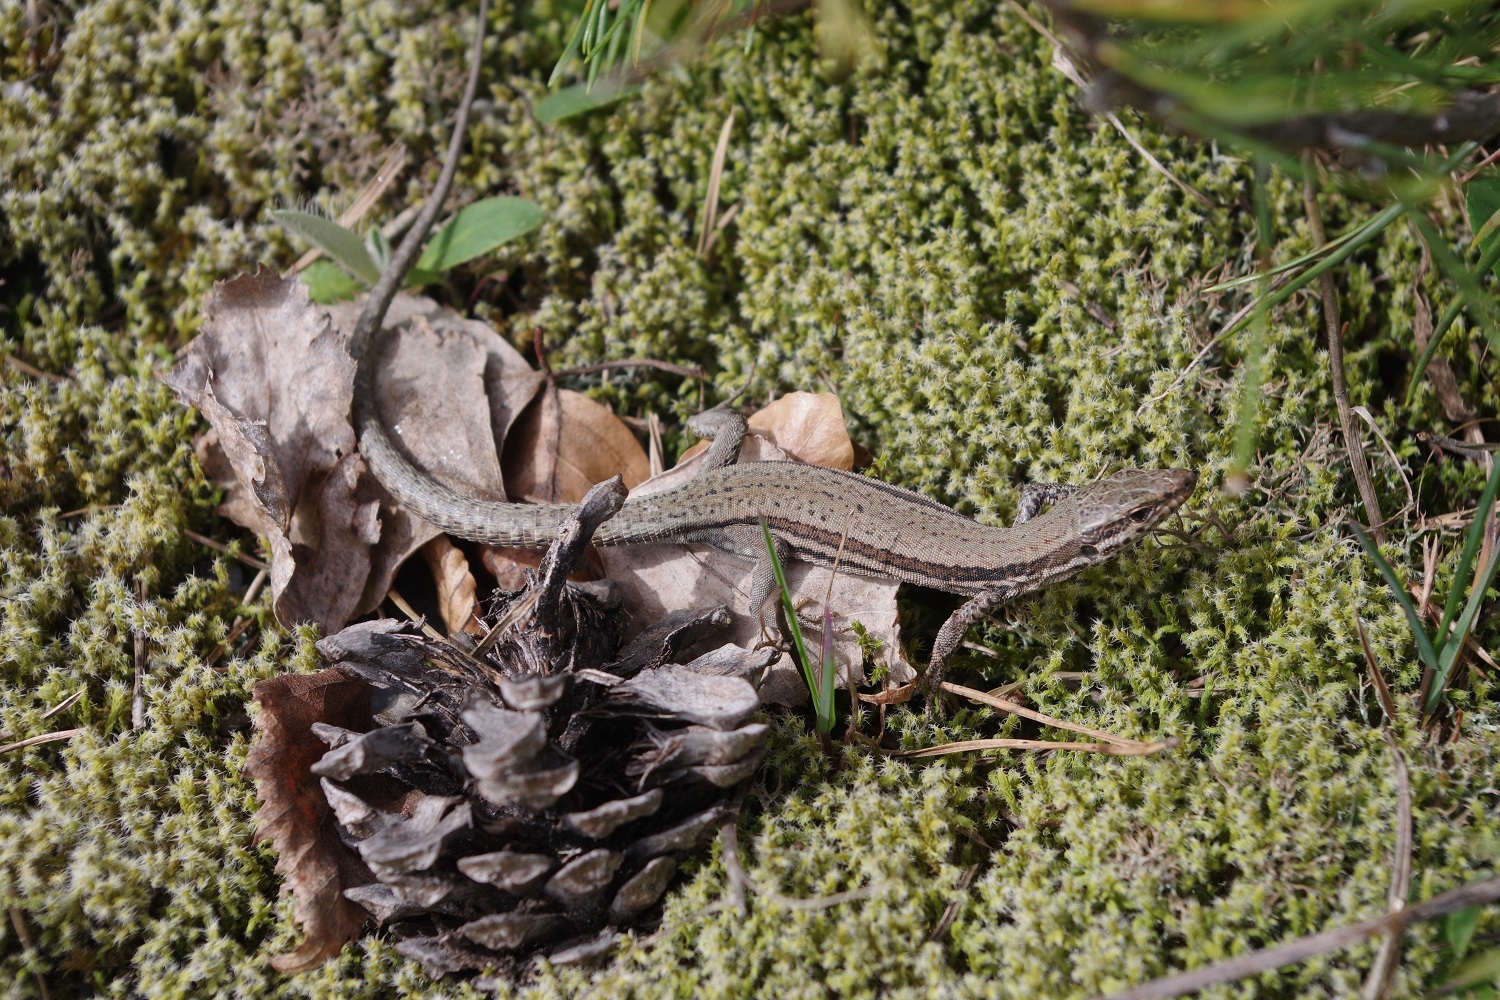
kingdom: Animalia
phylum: Chordata
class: Squamata
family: Lacertidae
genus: Podarcis
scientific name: Podarcis muralis
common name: Common wall lizard
